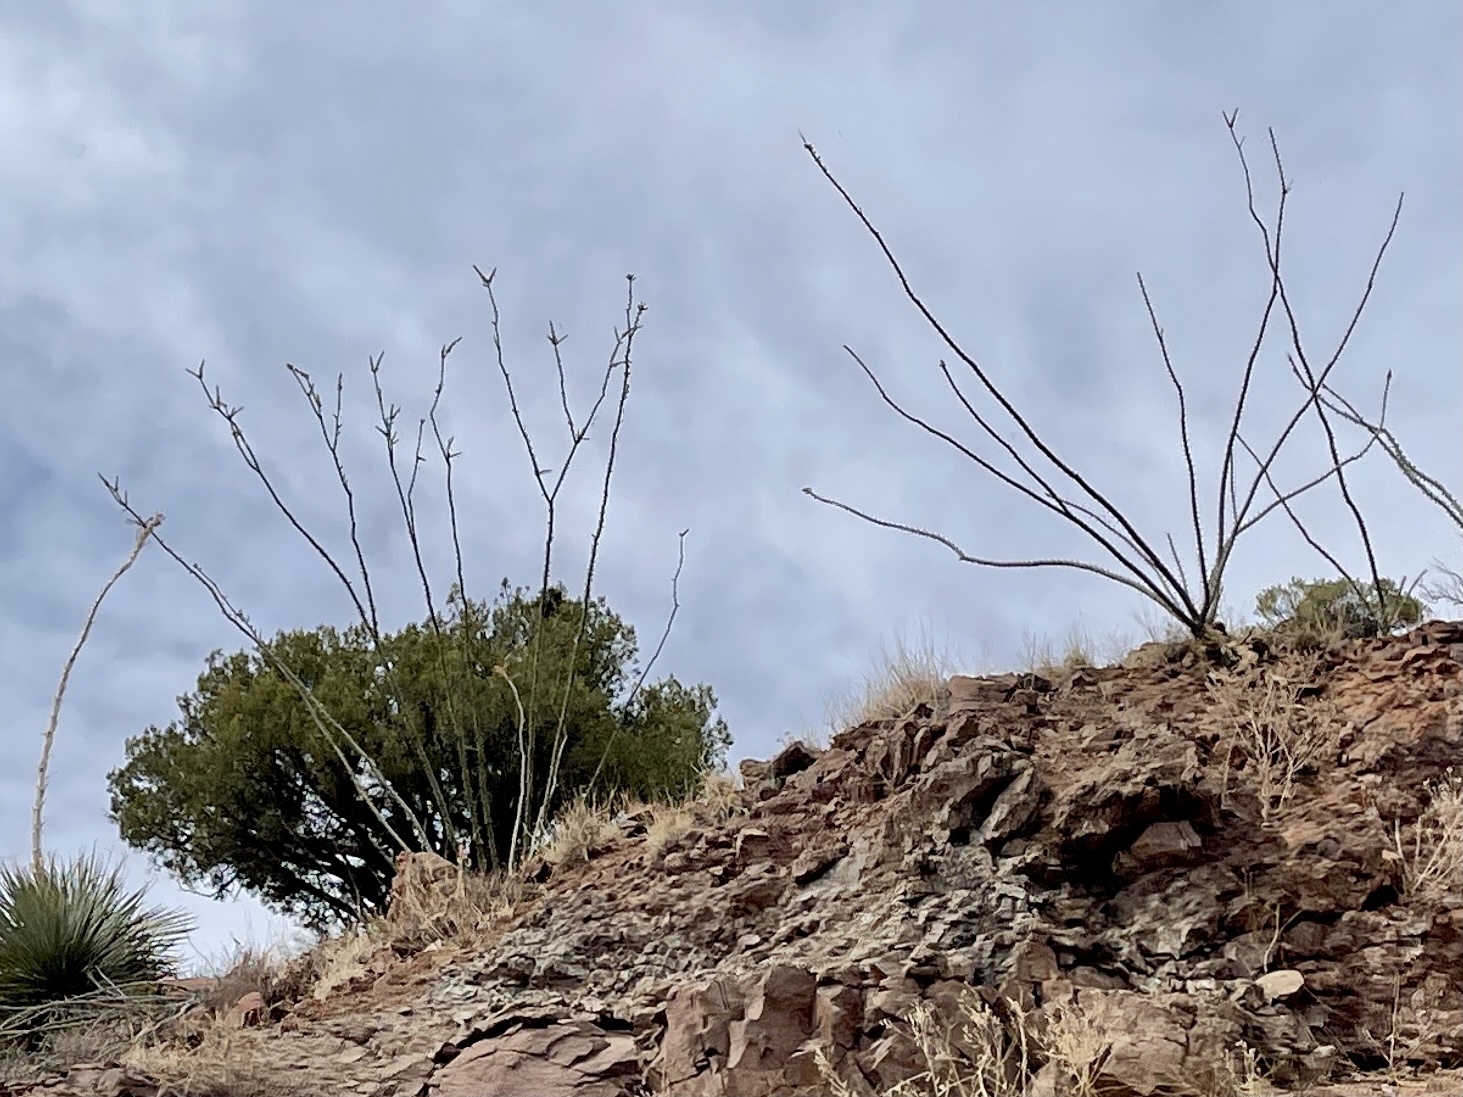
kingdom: Plantae
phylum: Tracheophyta
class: Magnoliopsida
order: Ericales
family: Fouquieriaceae
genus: Fouquieria
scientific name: Fouquieria splendens
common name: Vine-cactus
